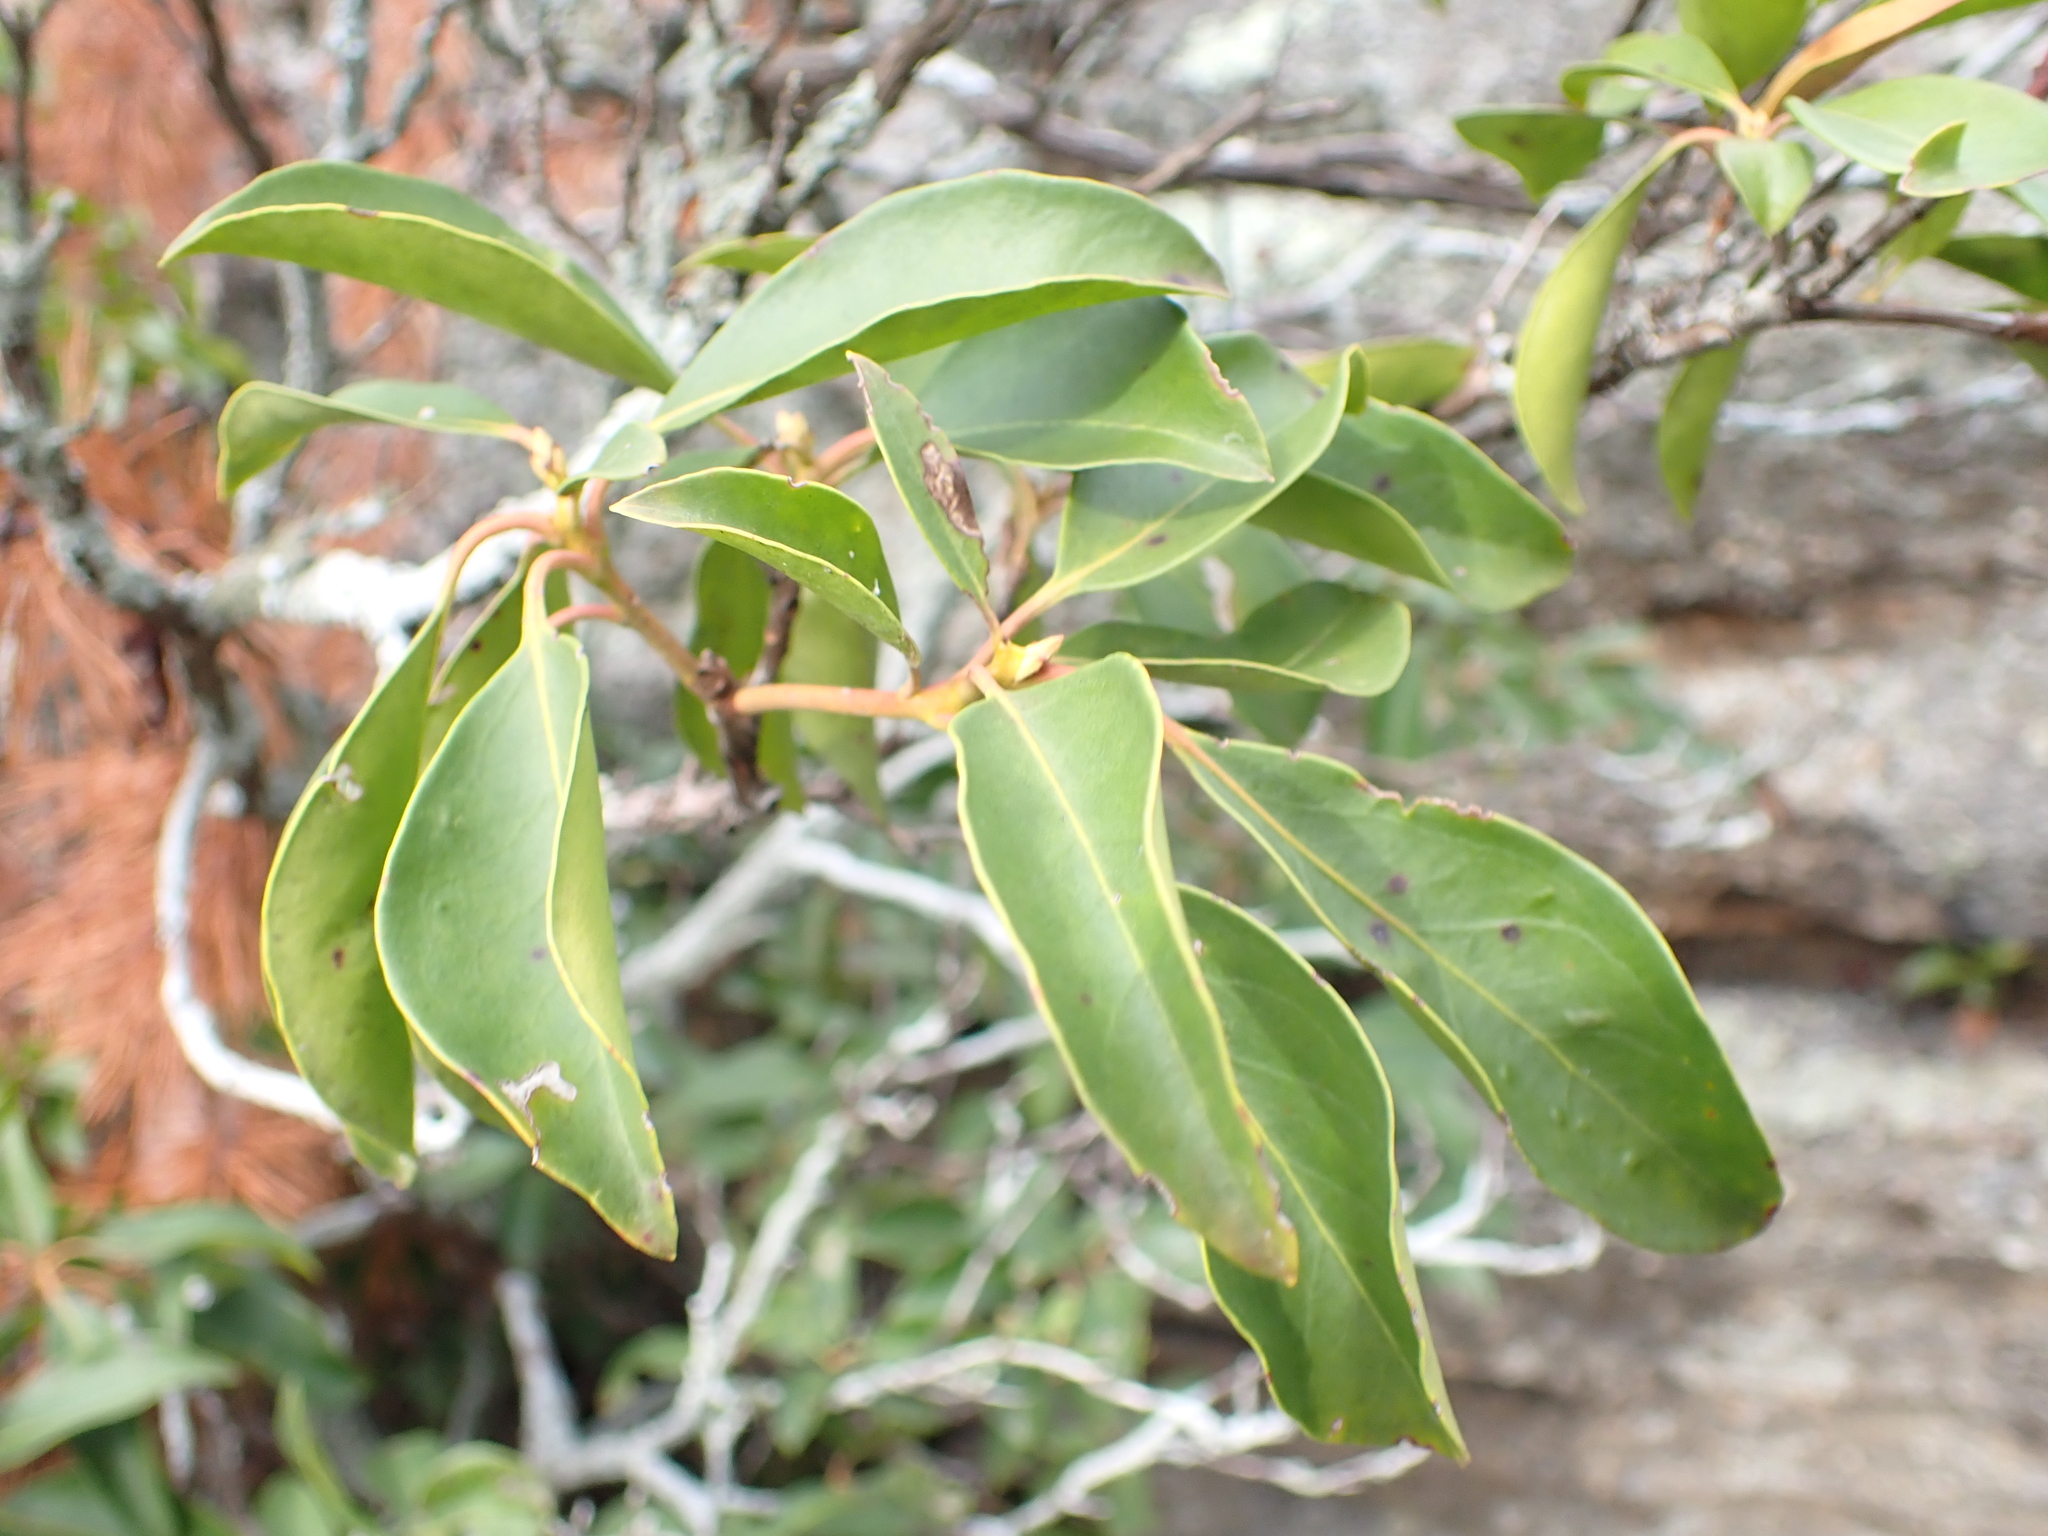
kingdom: Plantae
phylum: Tracheophyta
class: Magnoliopsida
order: Ericales
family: Ericaceae
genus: Kalmia
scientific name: Kalmia latifolia
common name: Mountain-laurel
